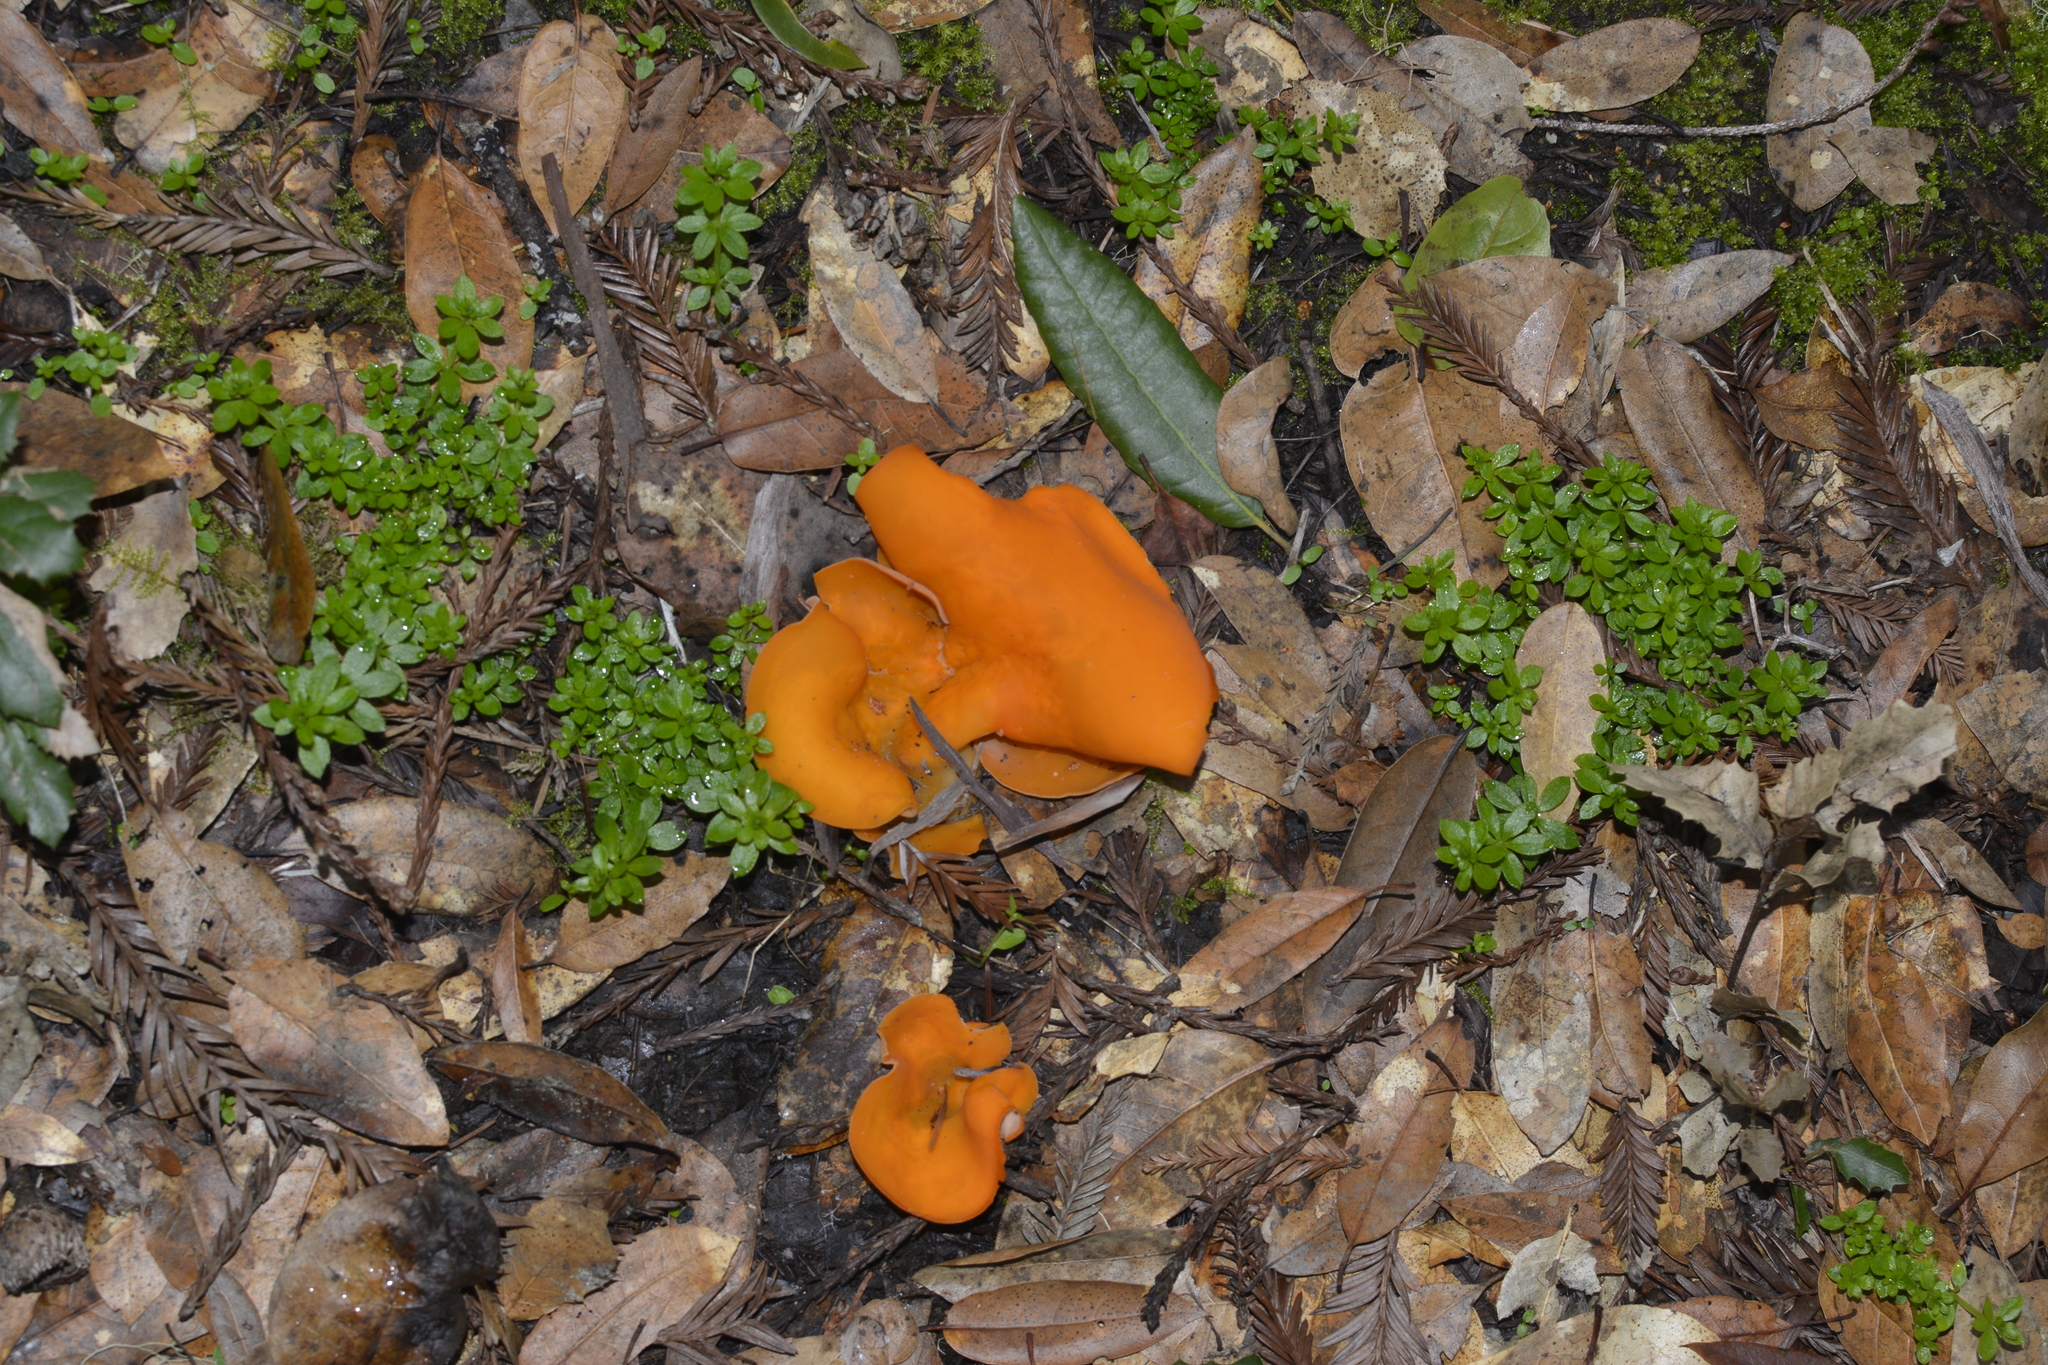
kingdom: Fungi
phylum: Ascomycota
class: Pezizomycetes
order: Pezizales
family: Pyronemataceae
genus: Aleuria
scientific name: Aleuria aurantia
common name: Orange peel fungus
